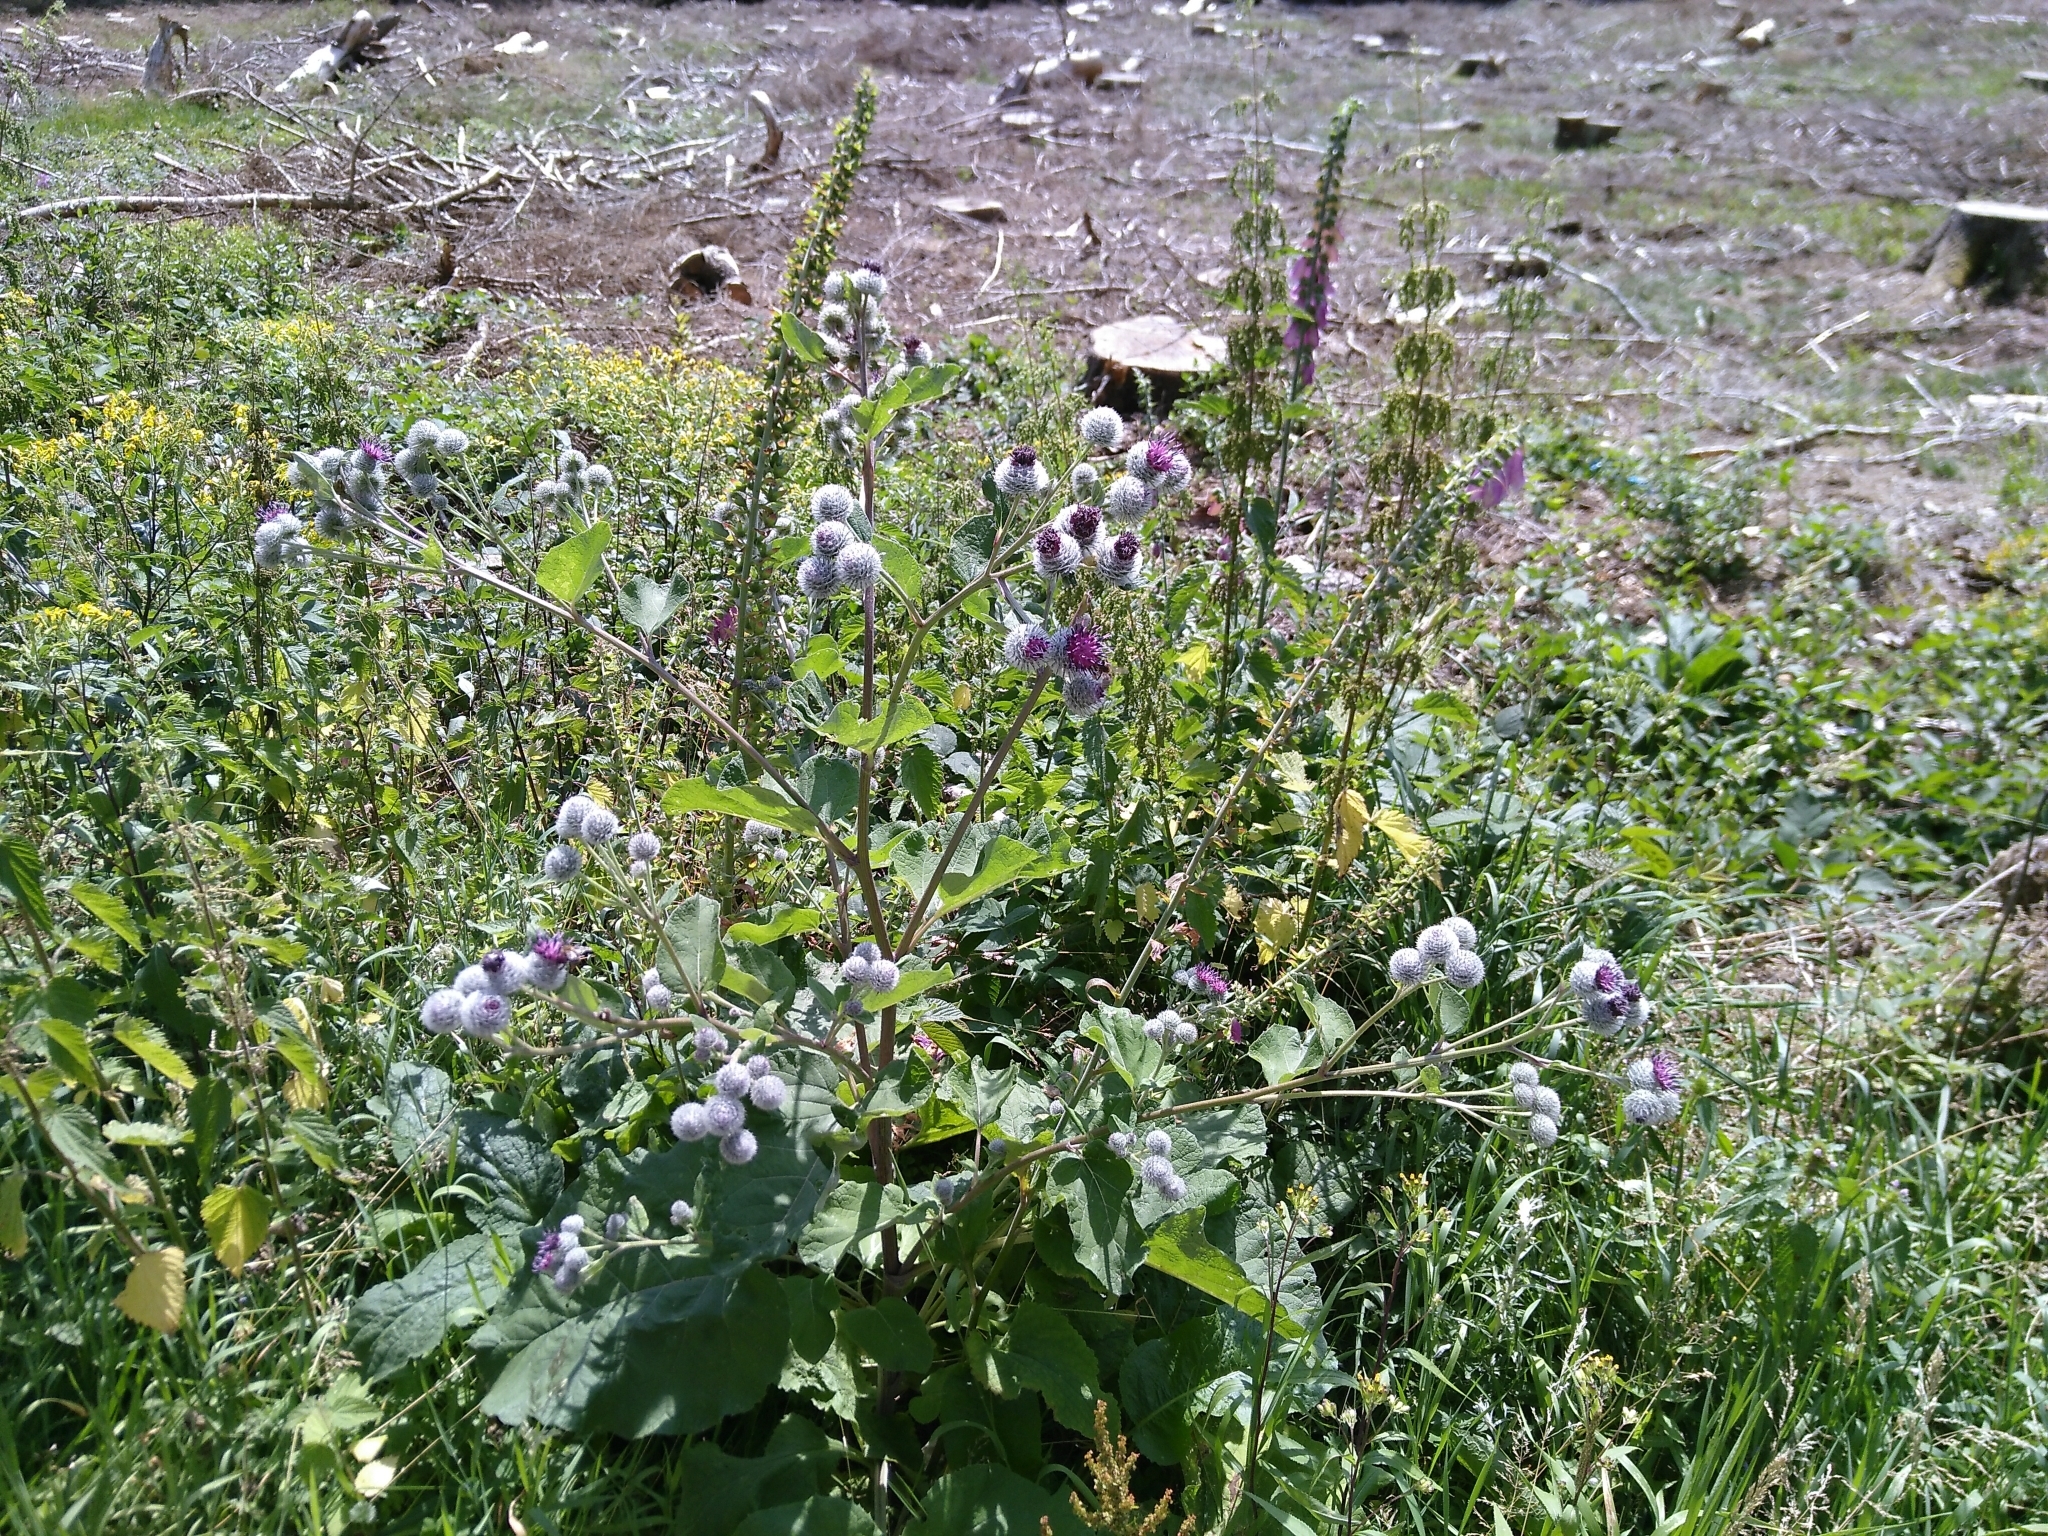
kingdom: Plantae
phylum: Tracheophyta
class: Magnoliopsida
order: Asterales
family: Asteraceae
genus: Arctium
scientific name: Arctium tomentosum
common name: Woolly burdock
